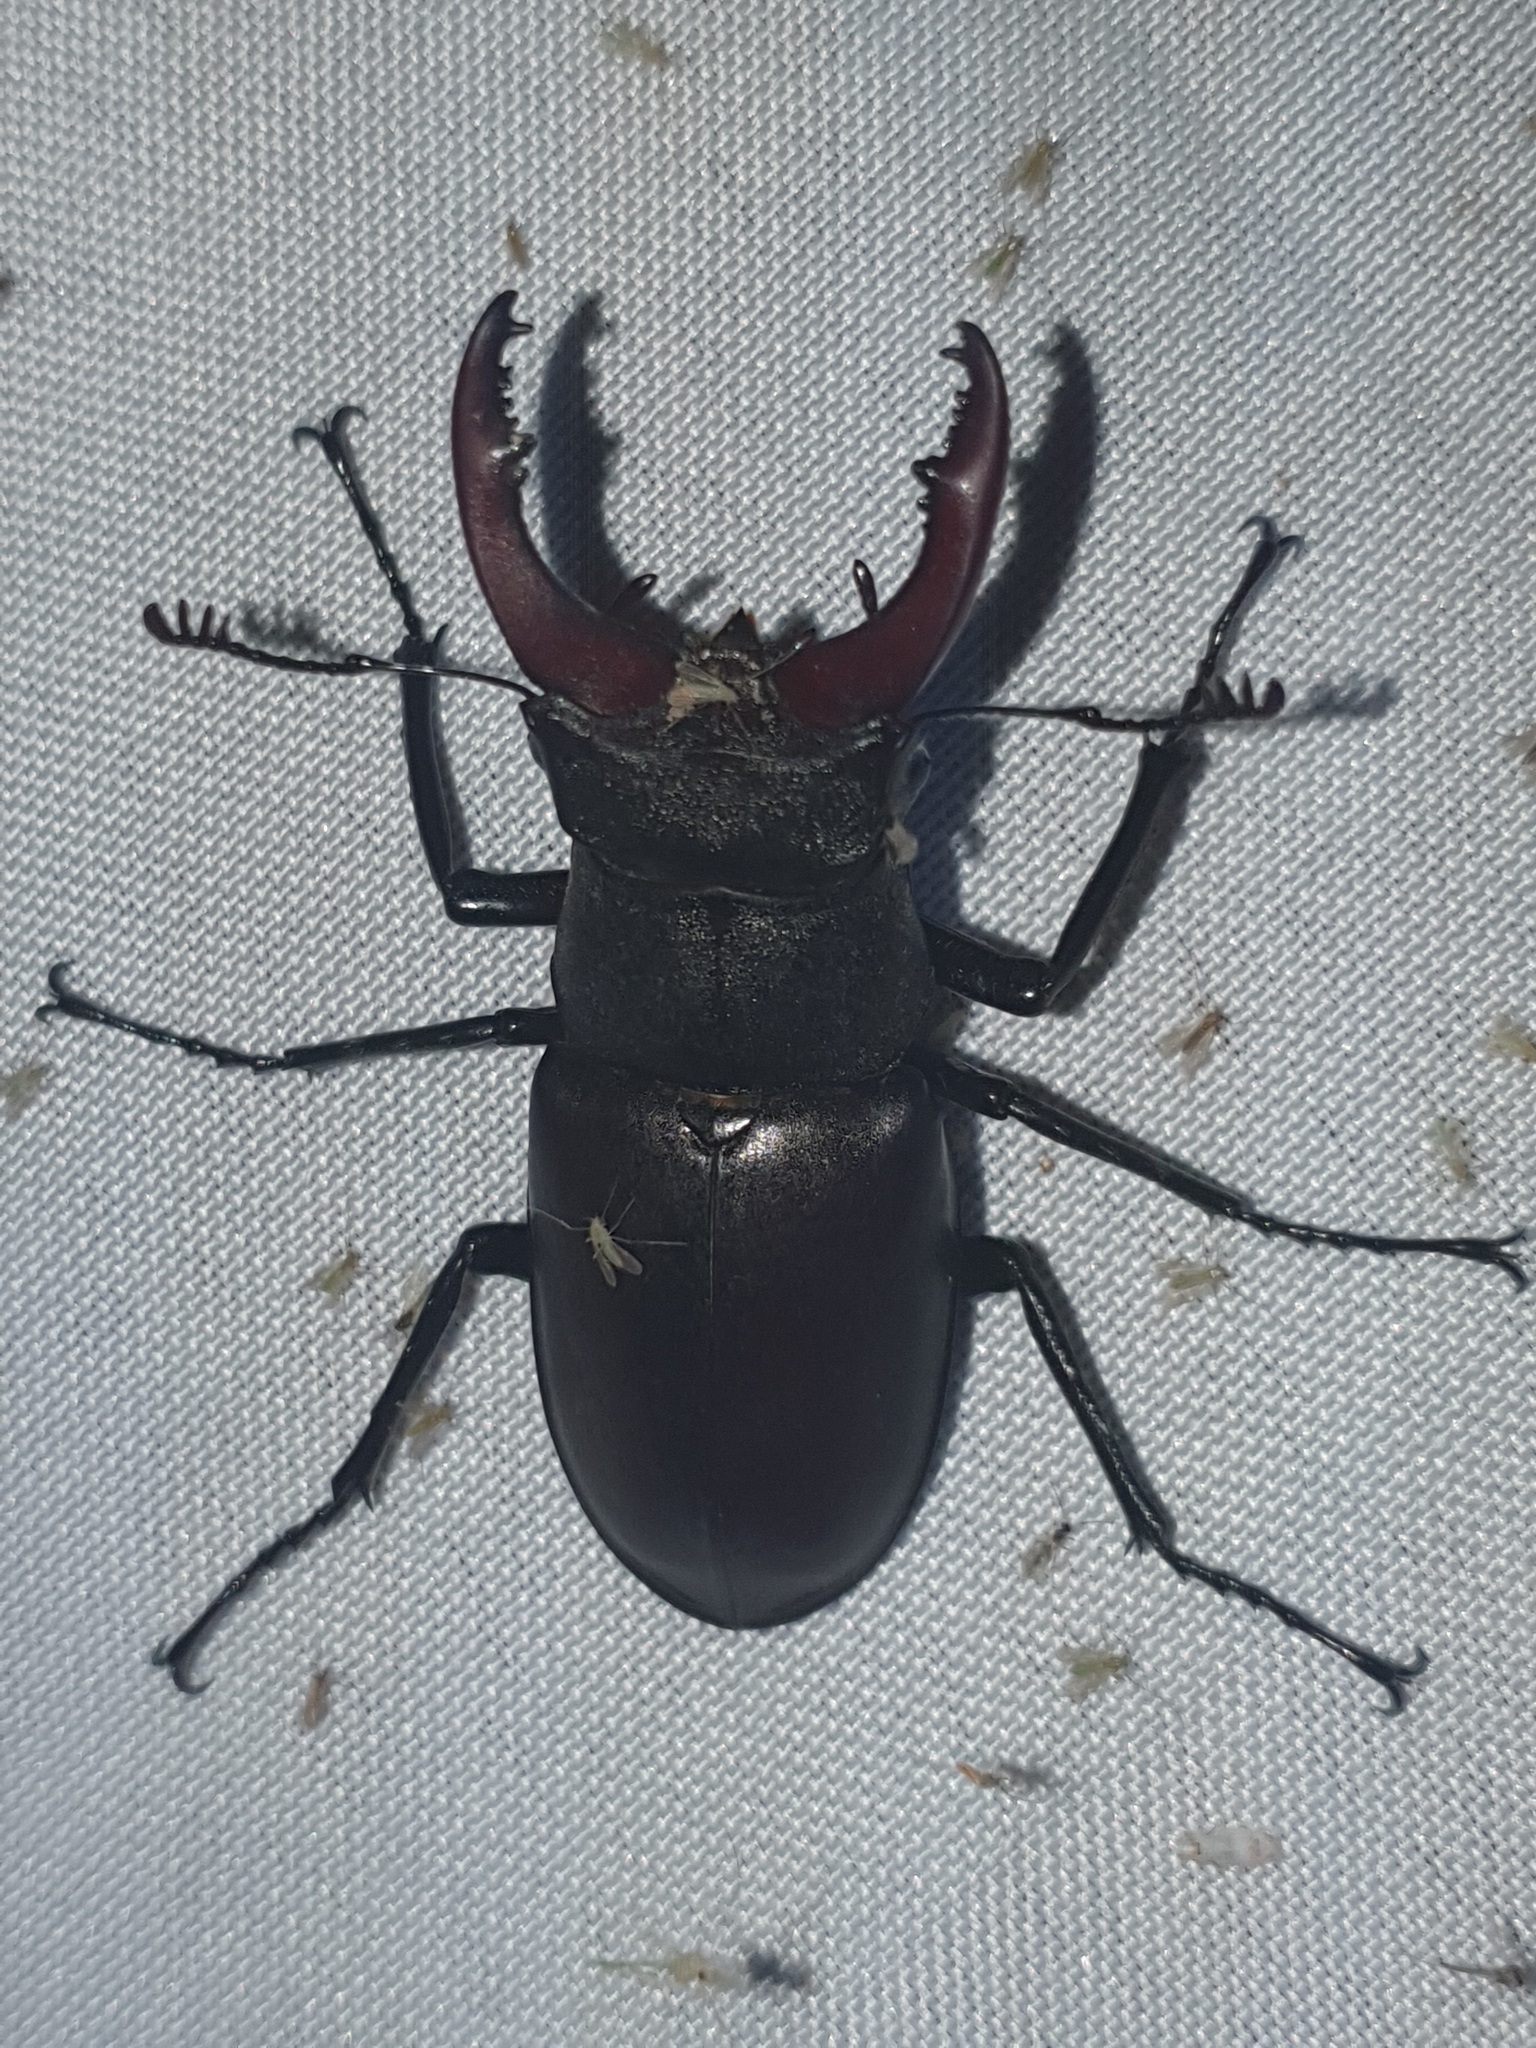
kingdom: Animalia
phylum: Arthropoda
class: Insecta
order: Coleoptera
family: Lucanidae
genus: Lucanus
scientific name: Lucanus cervus
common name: Stag beetle
